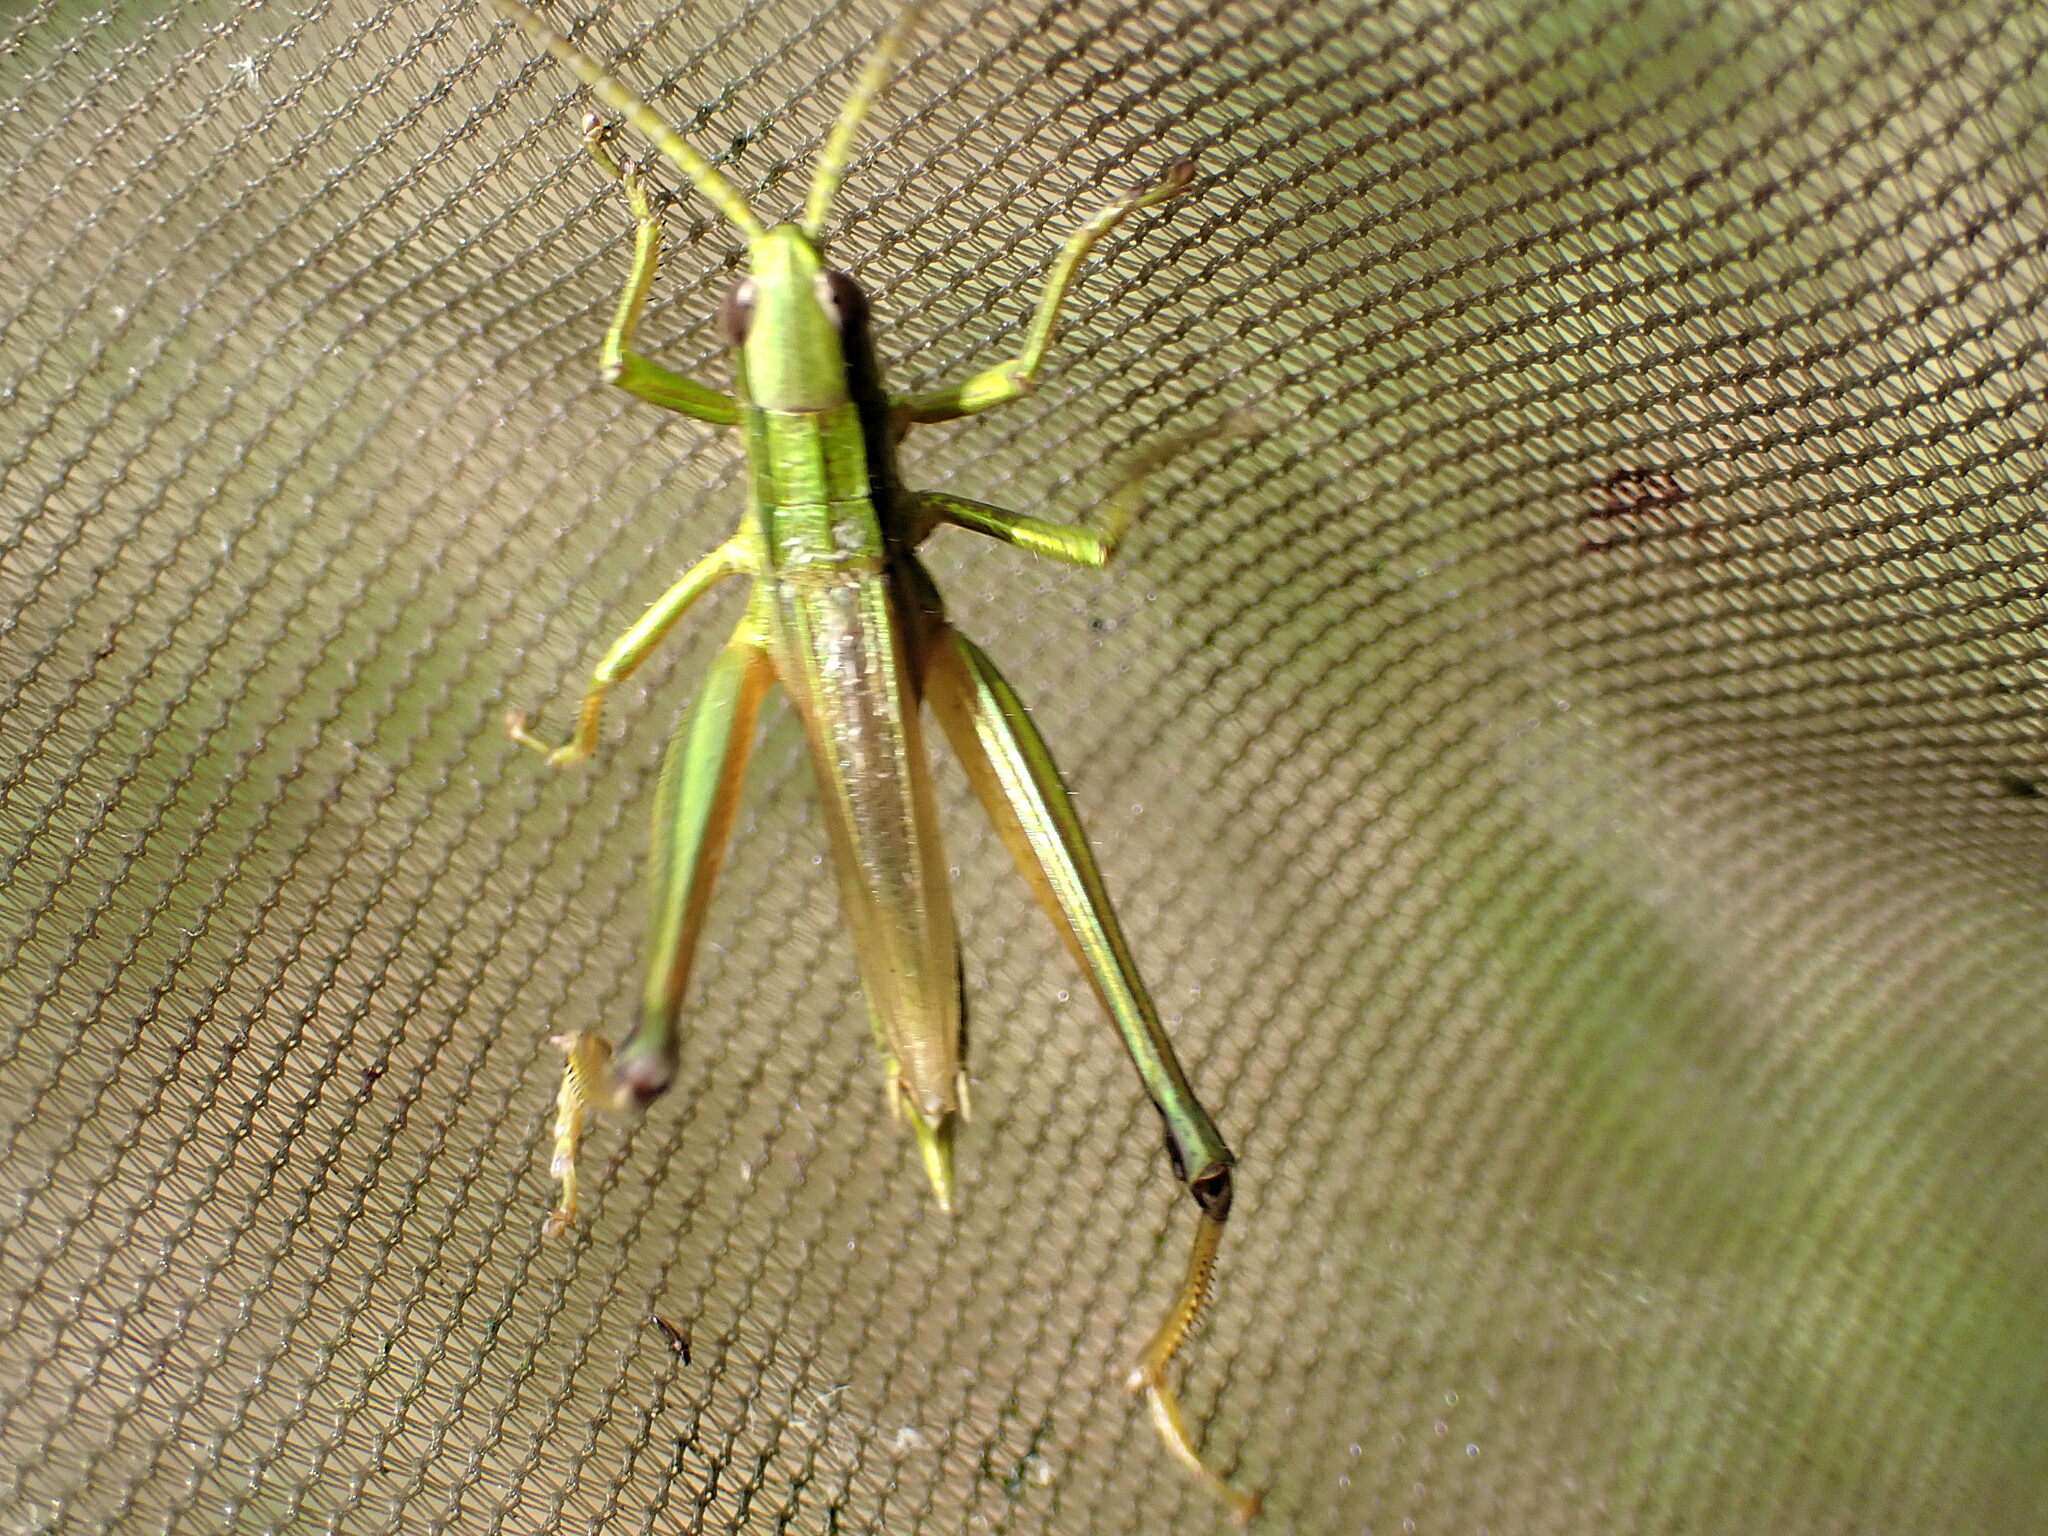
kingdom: Animalia
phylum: Arthropoda
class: Insecta
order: Orthoptera
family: Acrididae
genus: Chrysochraon
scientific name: Chrysochraon dispar
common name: Large gold grasshopper
